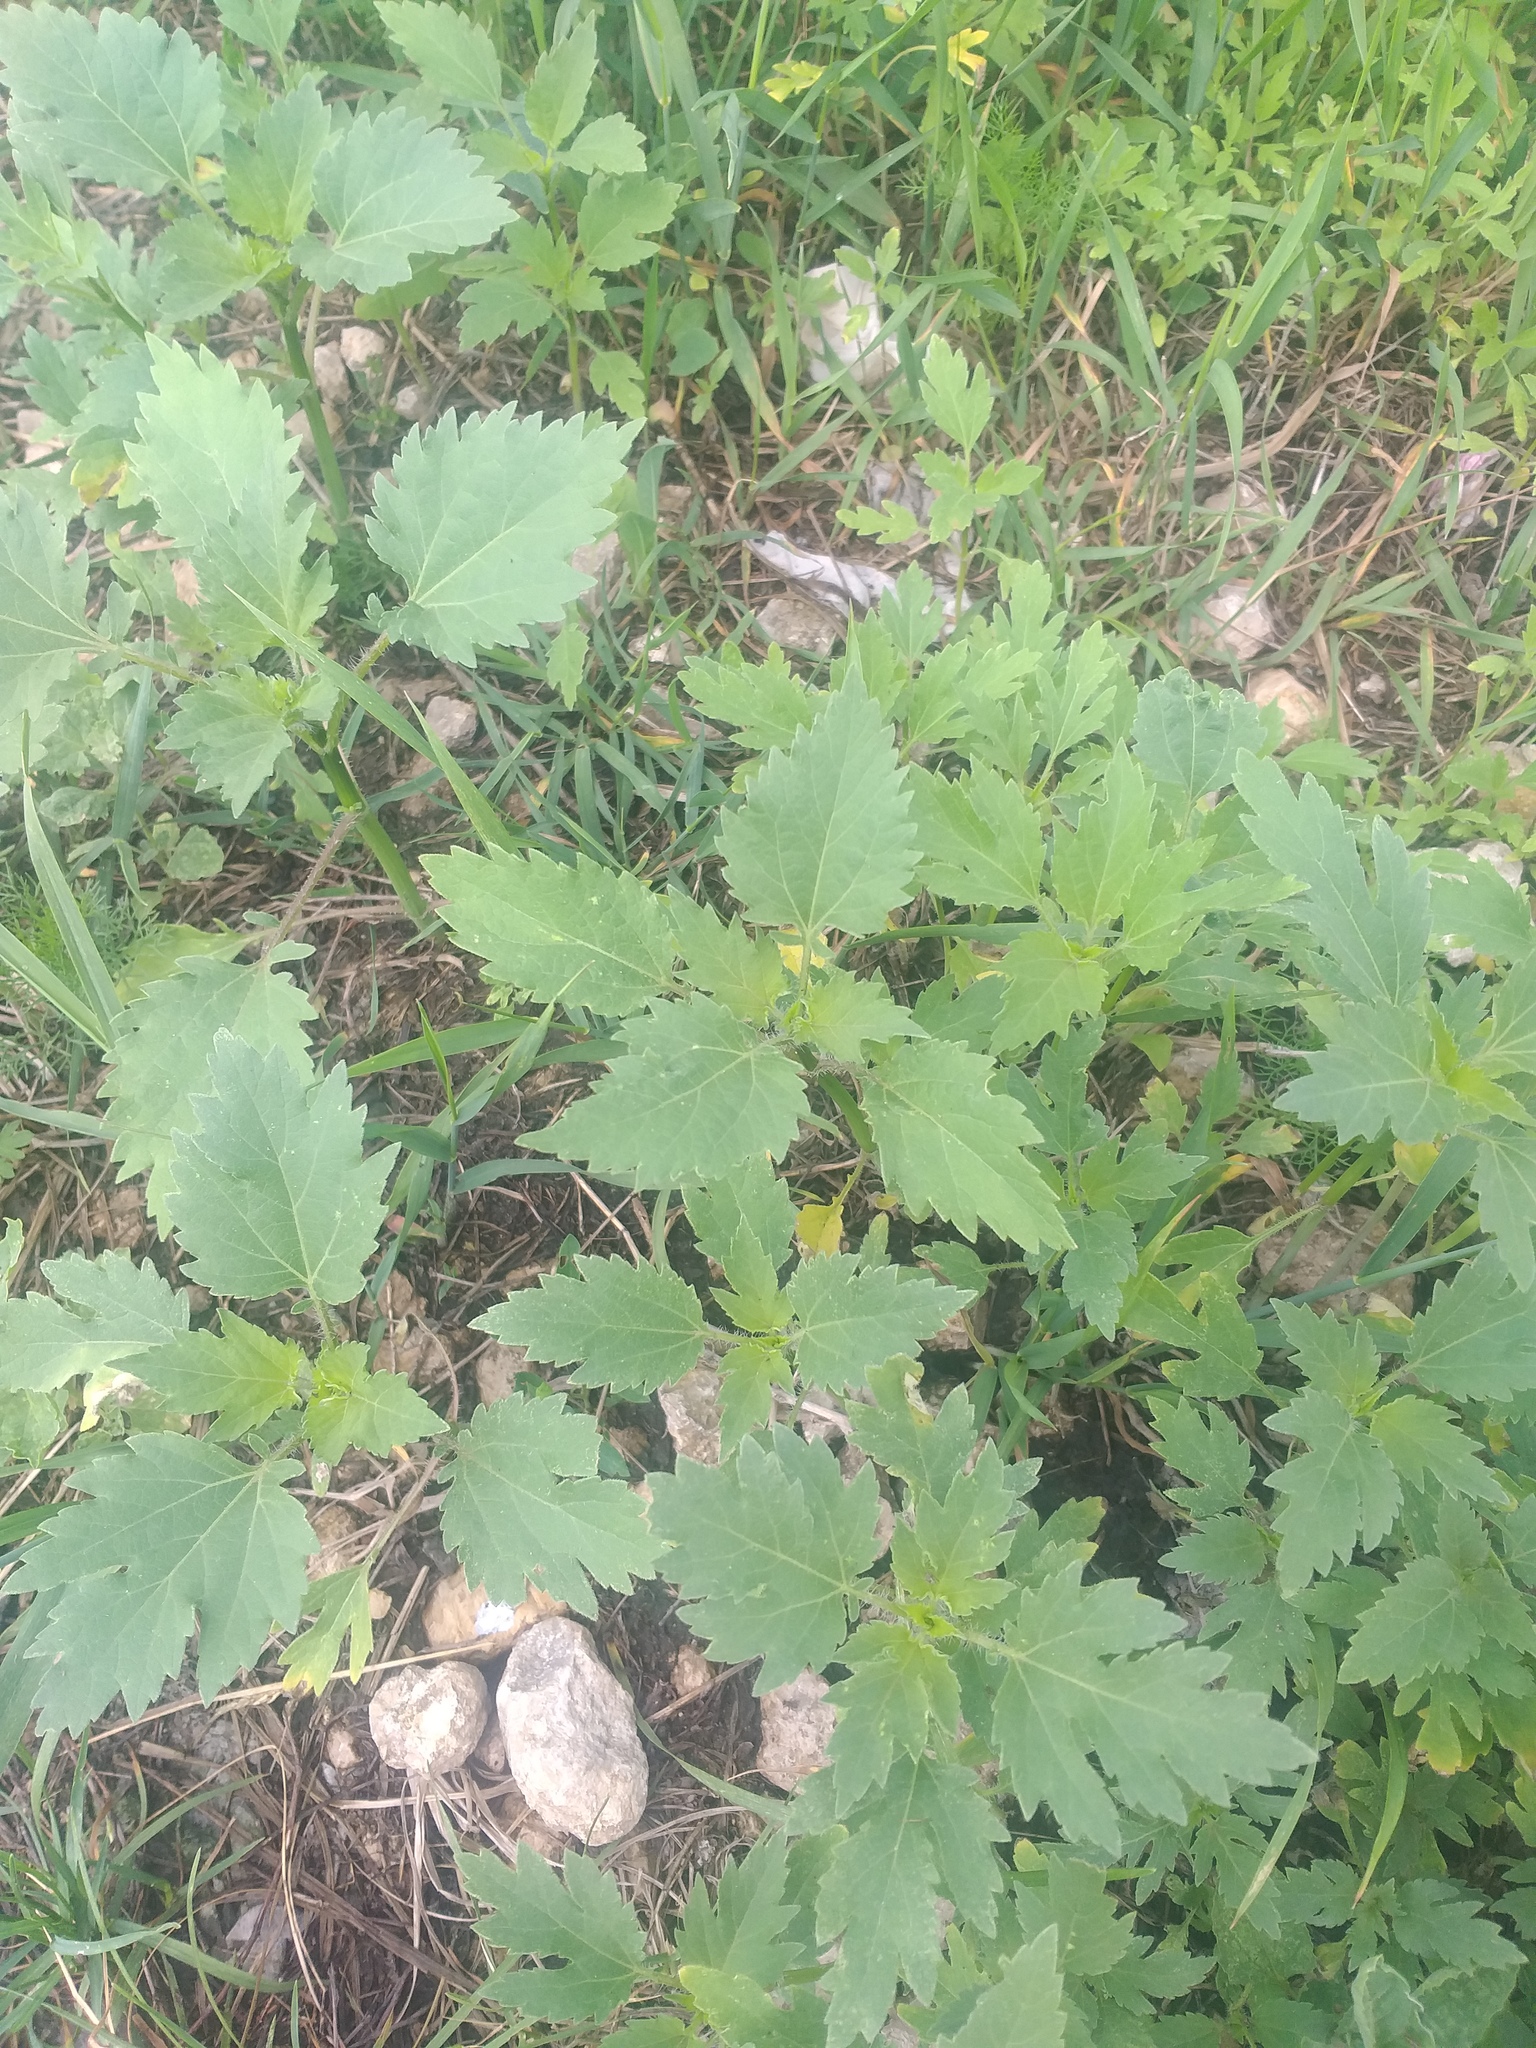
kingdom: Plantae
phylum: Tracheophyta
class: Magnoliopsida
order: Asterales
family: Asteraceae
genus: Cyclachaena
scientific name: Cyclachaena xanthiifolia
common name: Giant sumpweed
